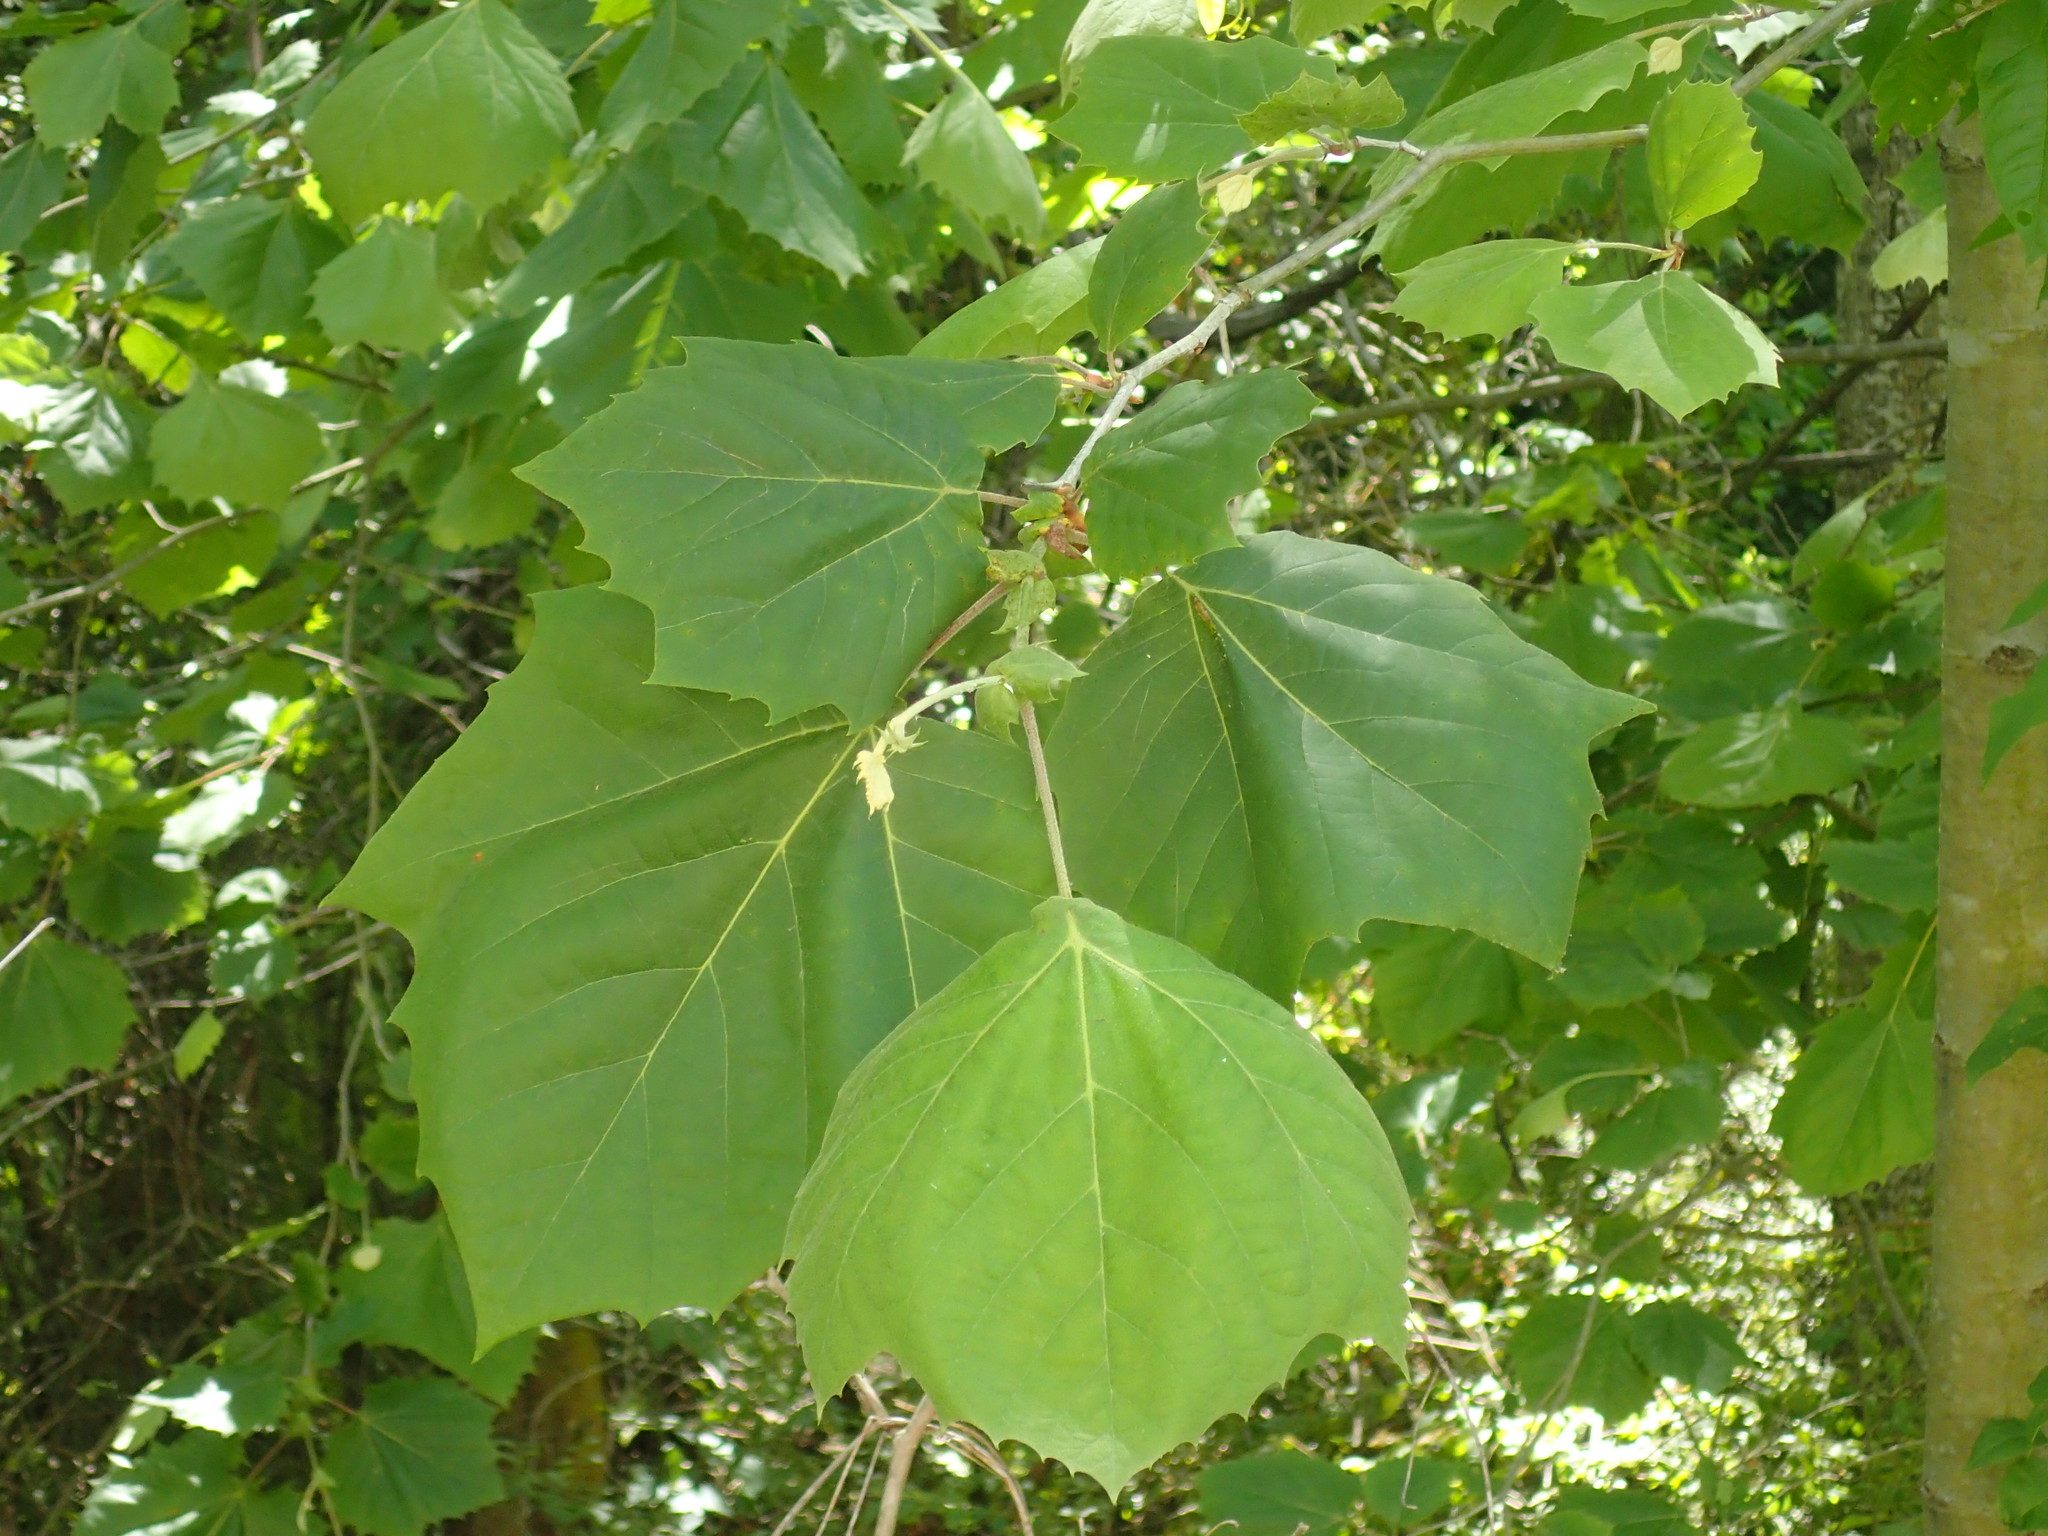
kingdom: Plantae
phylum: Tracheophyta
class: Magnoliopsida
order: Proteales
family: Platanaceae
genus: Platanus
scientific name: Platanus occidentalis
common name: American sycamore
